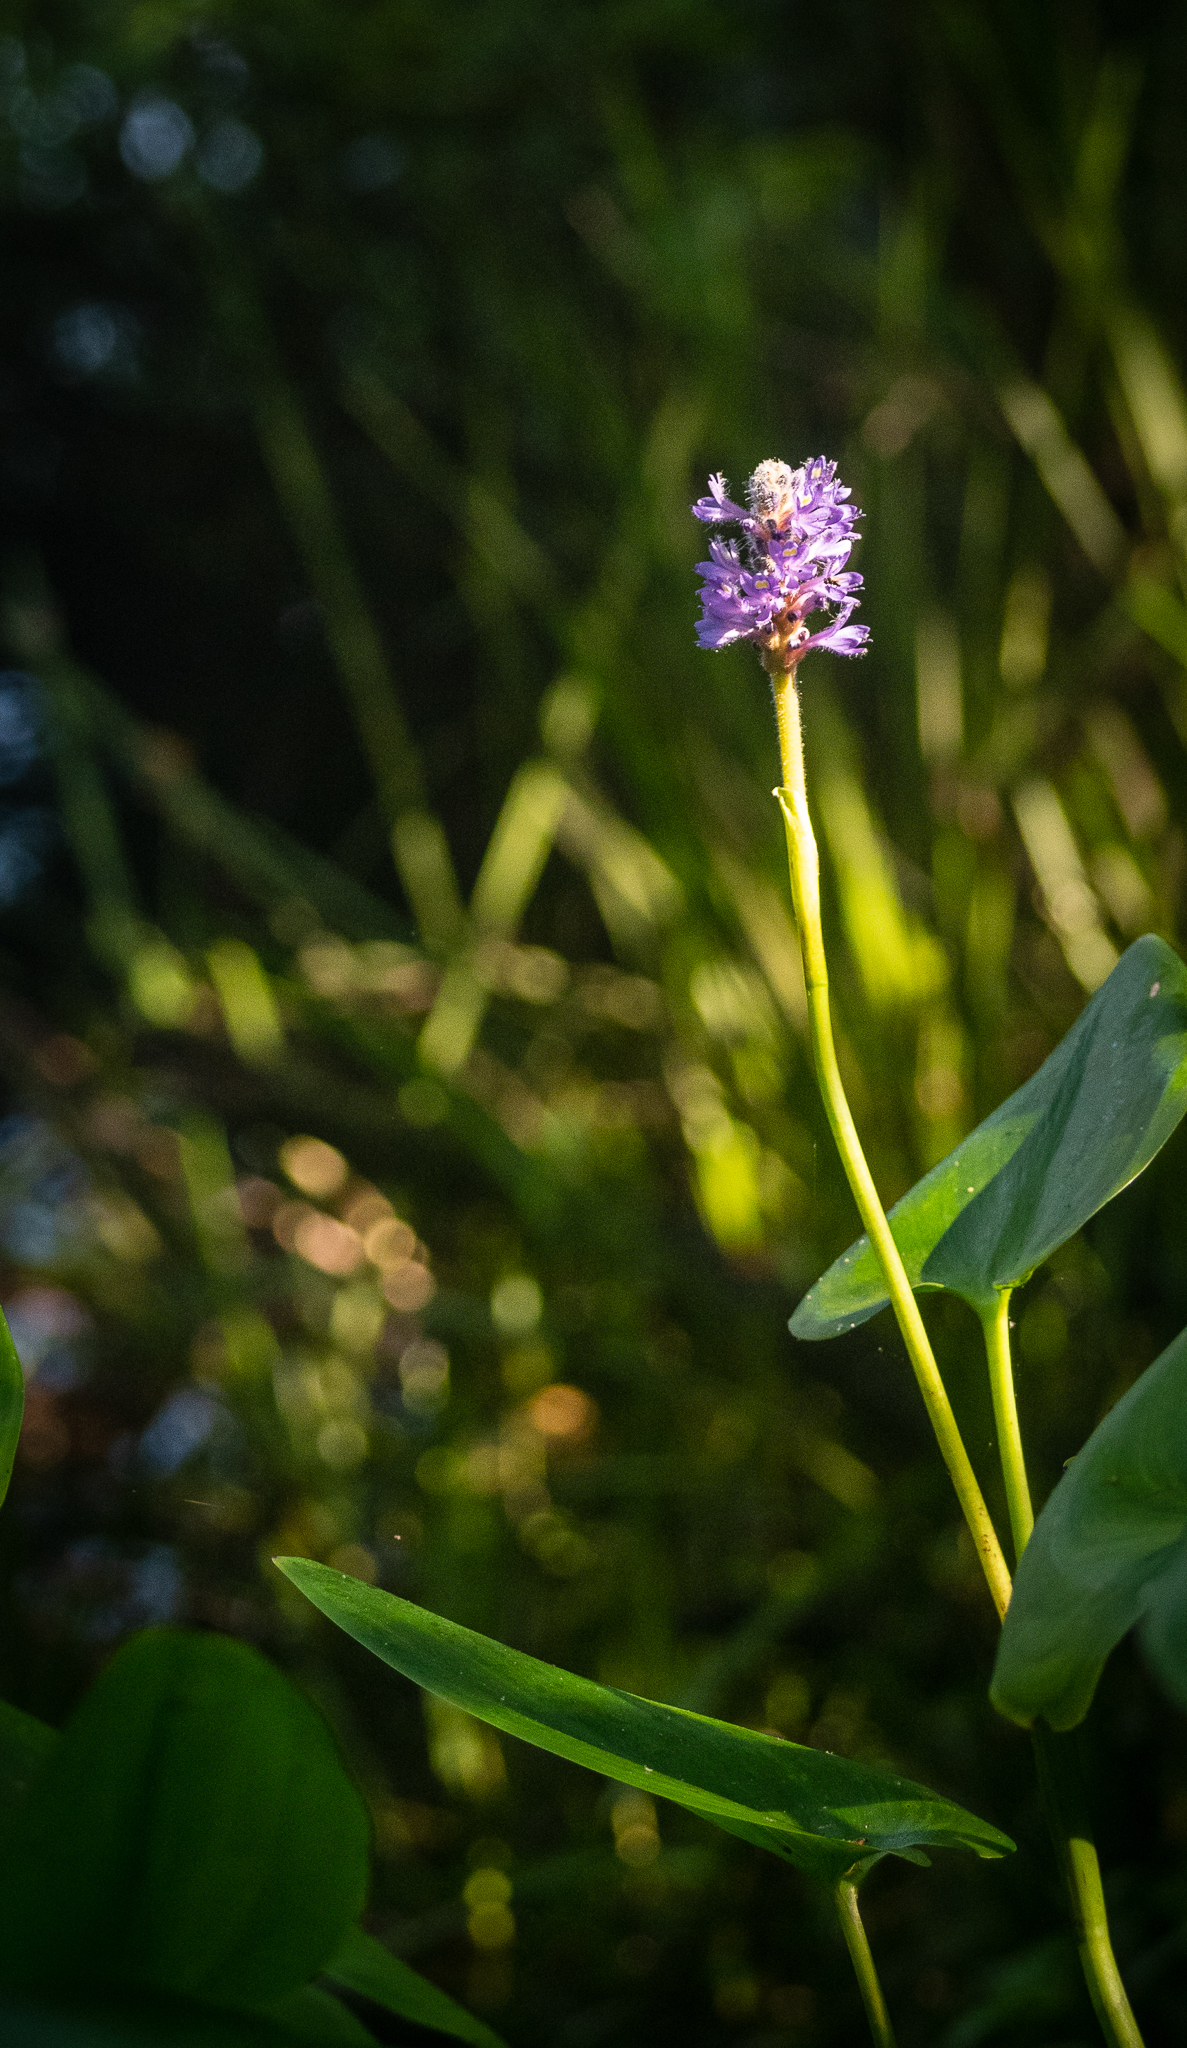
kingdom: Plantae
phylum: Tracheophyta
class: Liliopsida
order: Commelinales
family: Pontederiaceae
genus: Pontederia
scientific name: Pontederia cordata
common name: Pickerelweed
